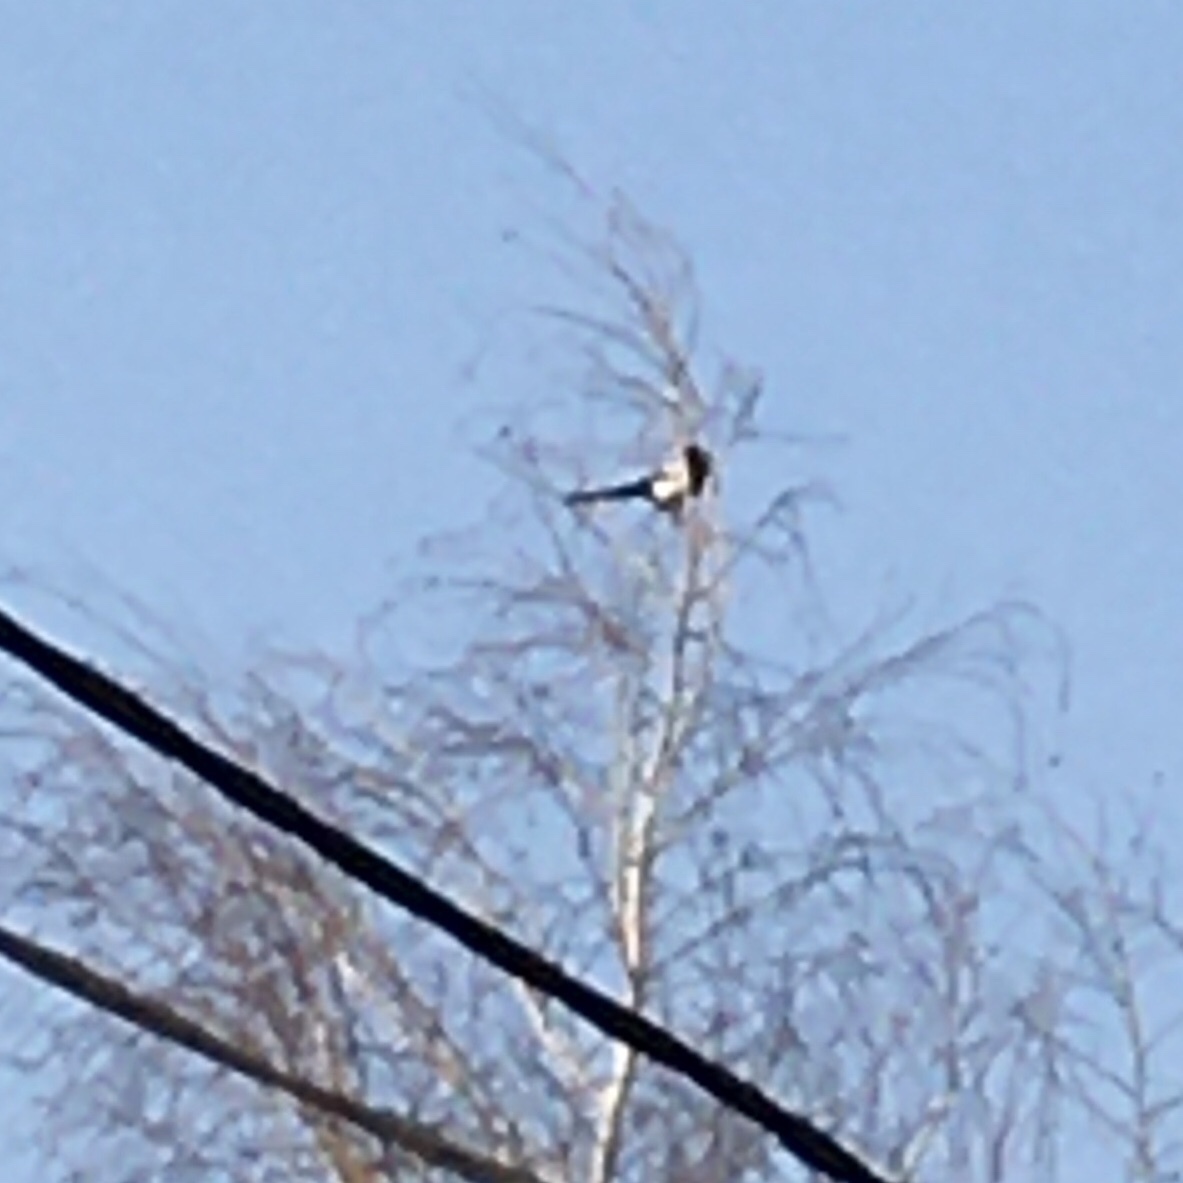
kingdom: Animalia
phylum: Chordata
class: Aves
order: Passeriformes
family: Corvidae
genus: Pica
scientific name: Pica pica
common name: Eurasian magpie
